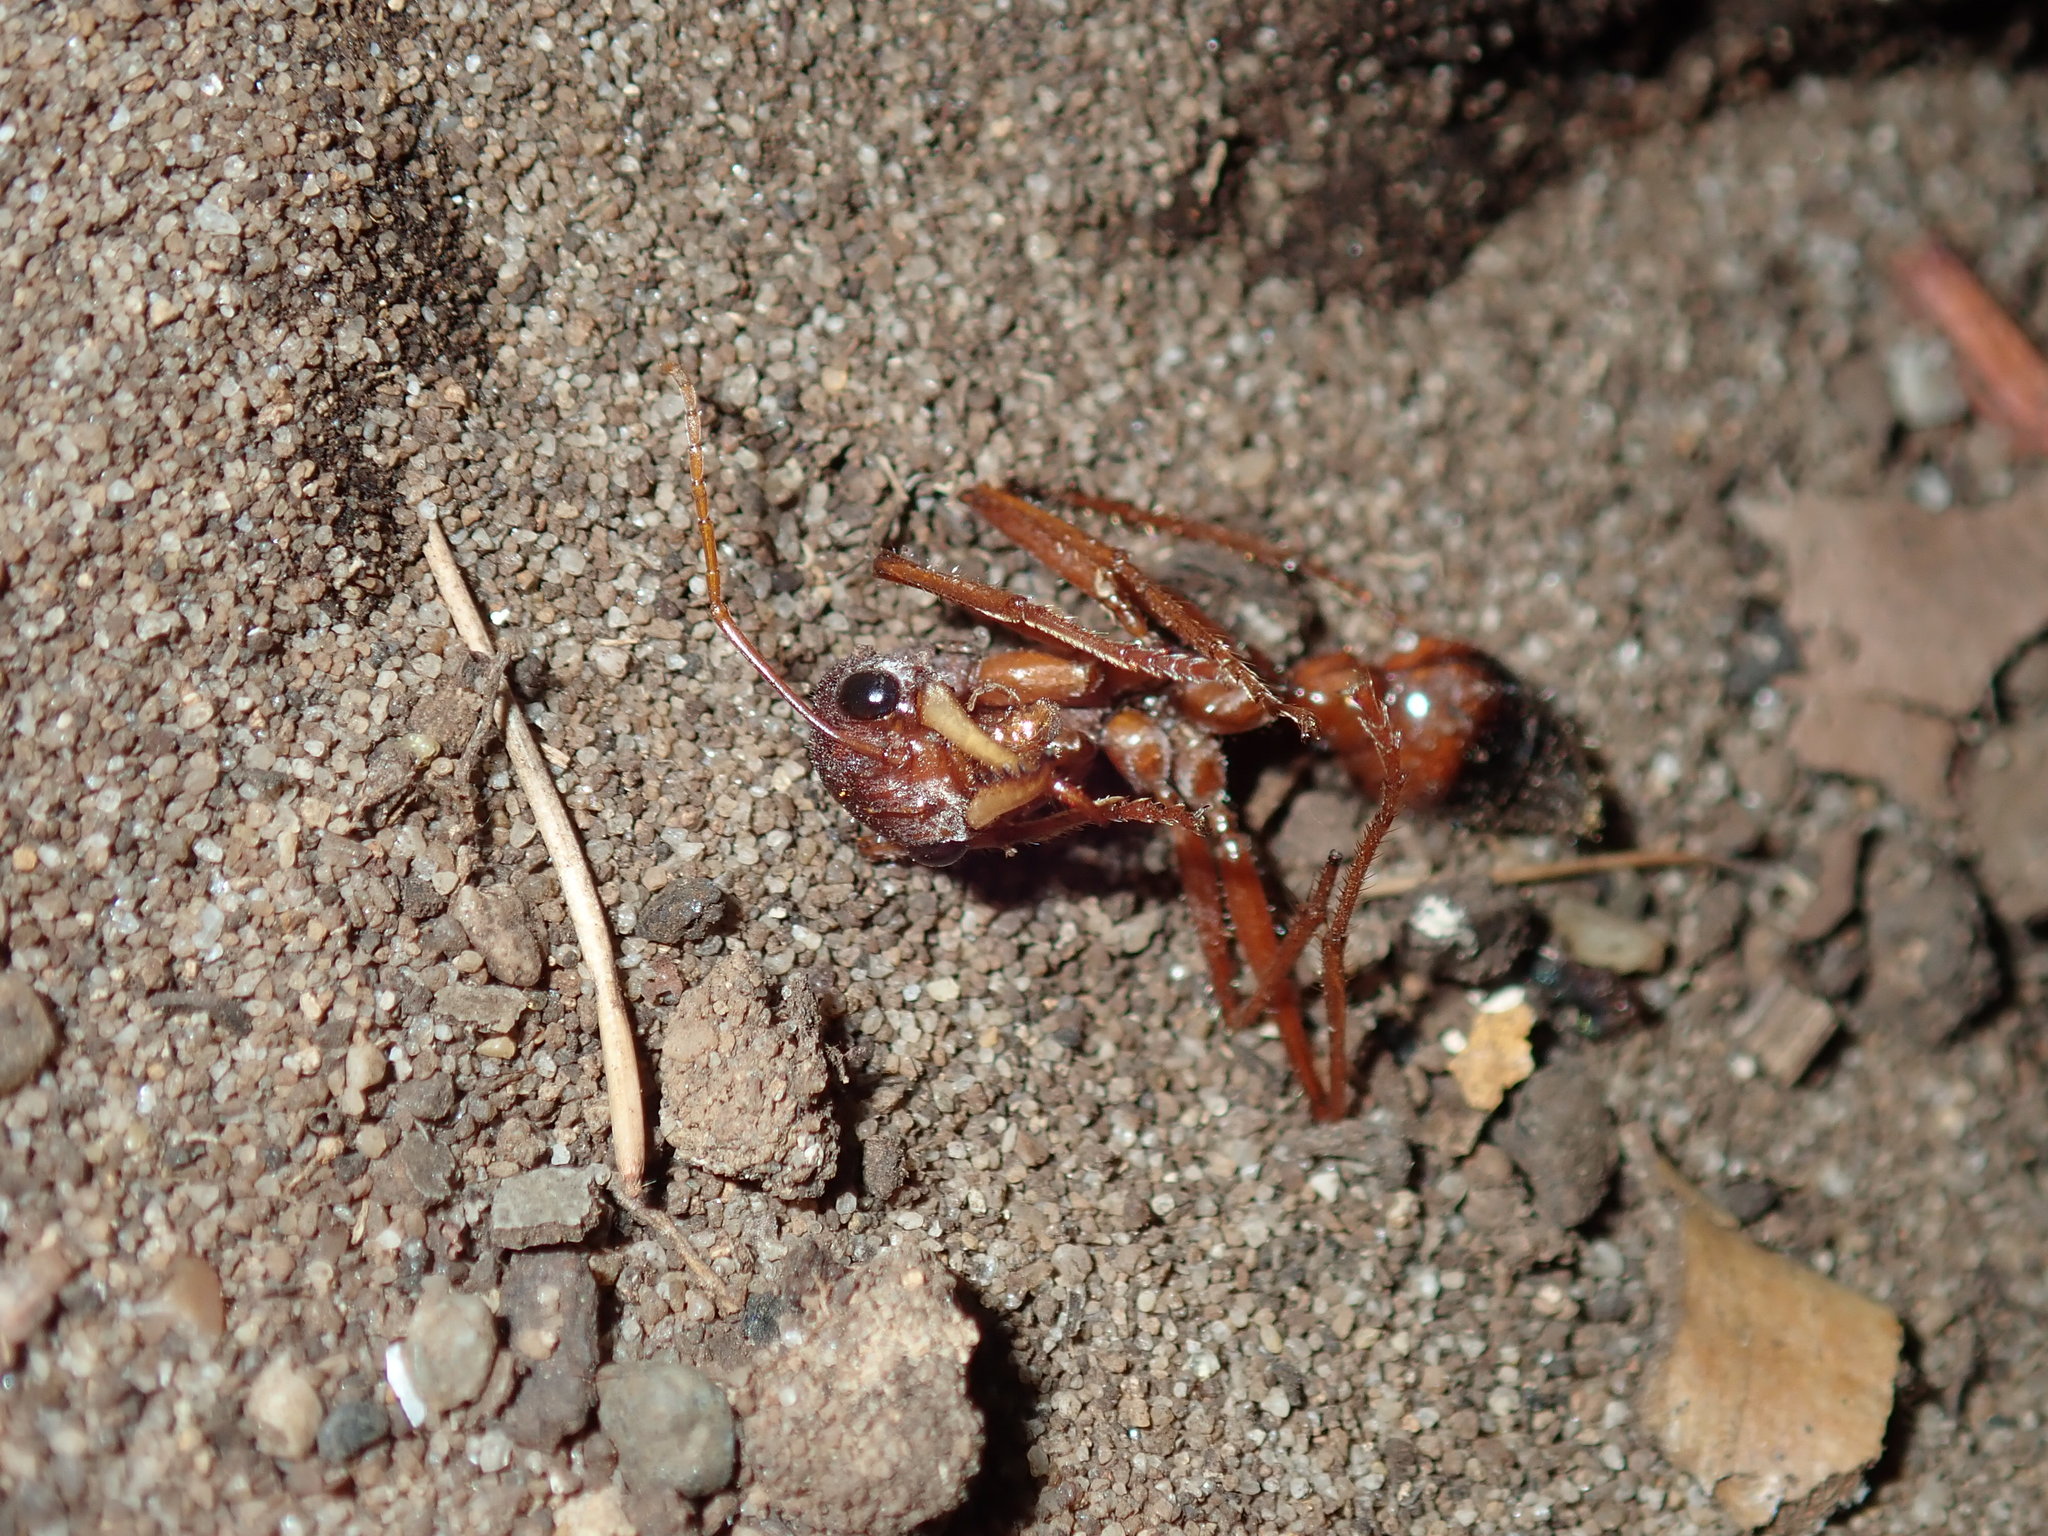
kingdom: Animalia
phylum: Arthropoda
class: Insecta
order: Hymenoptera
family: Formicidae
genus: Myrmecia
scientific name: Myrmecia gulosa
